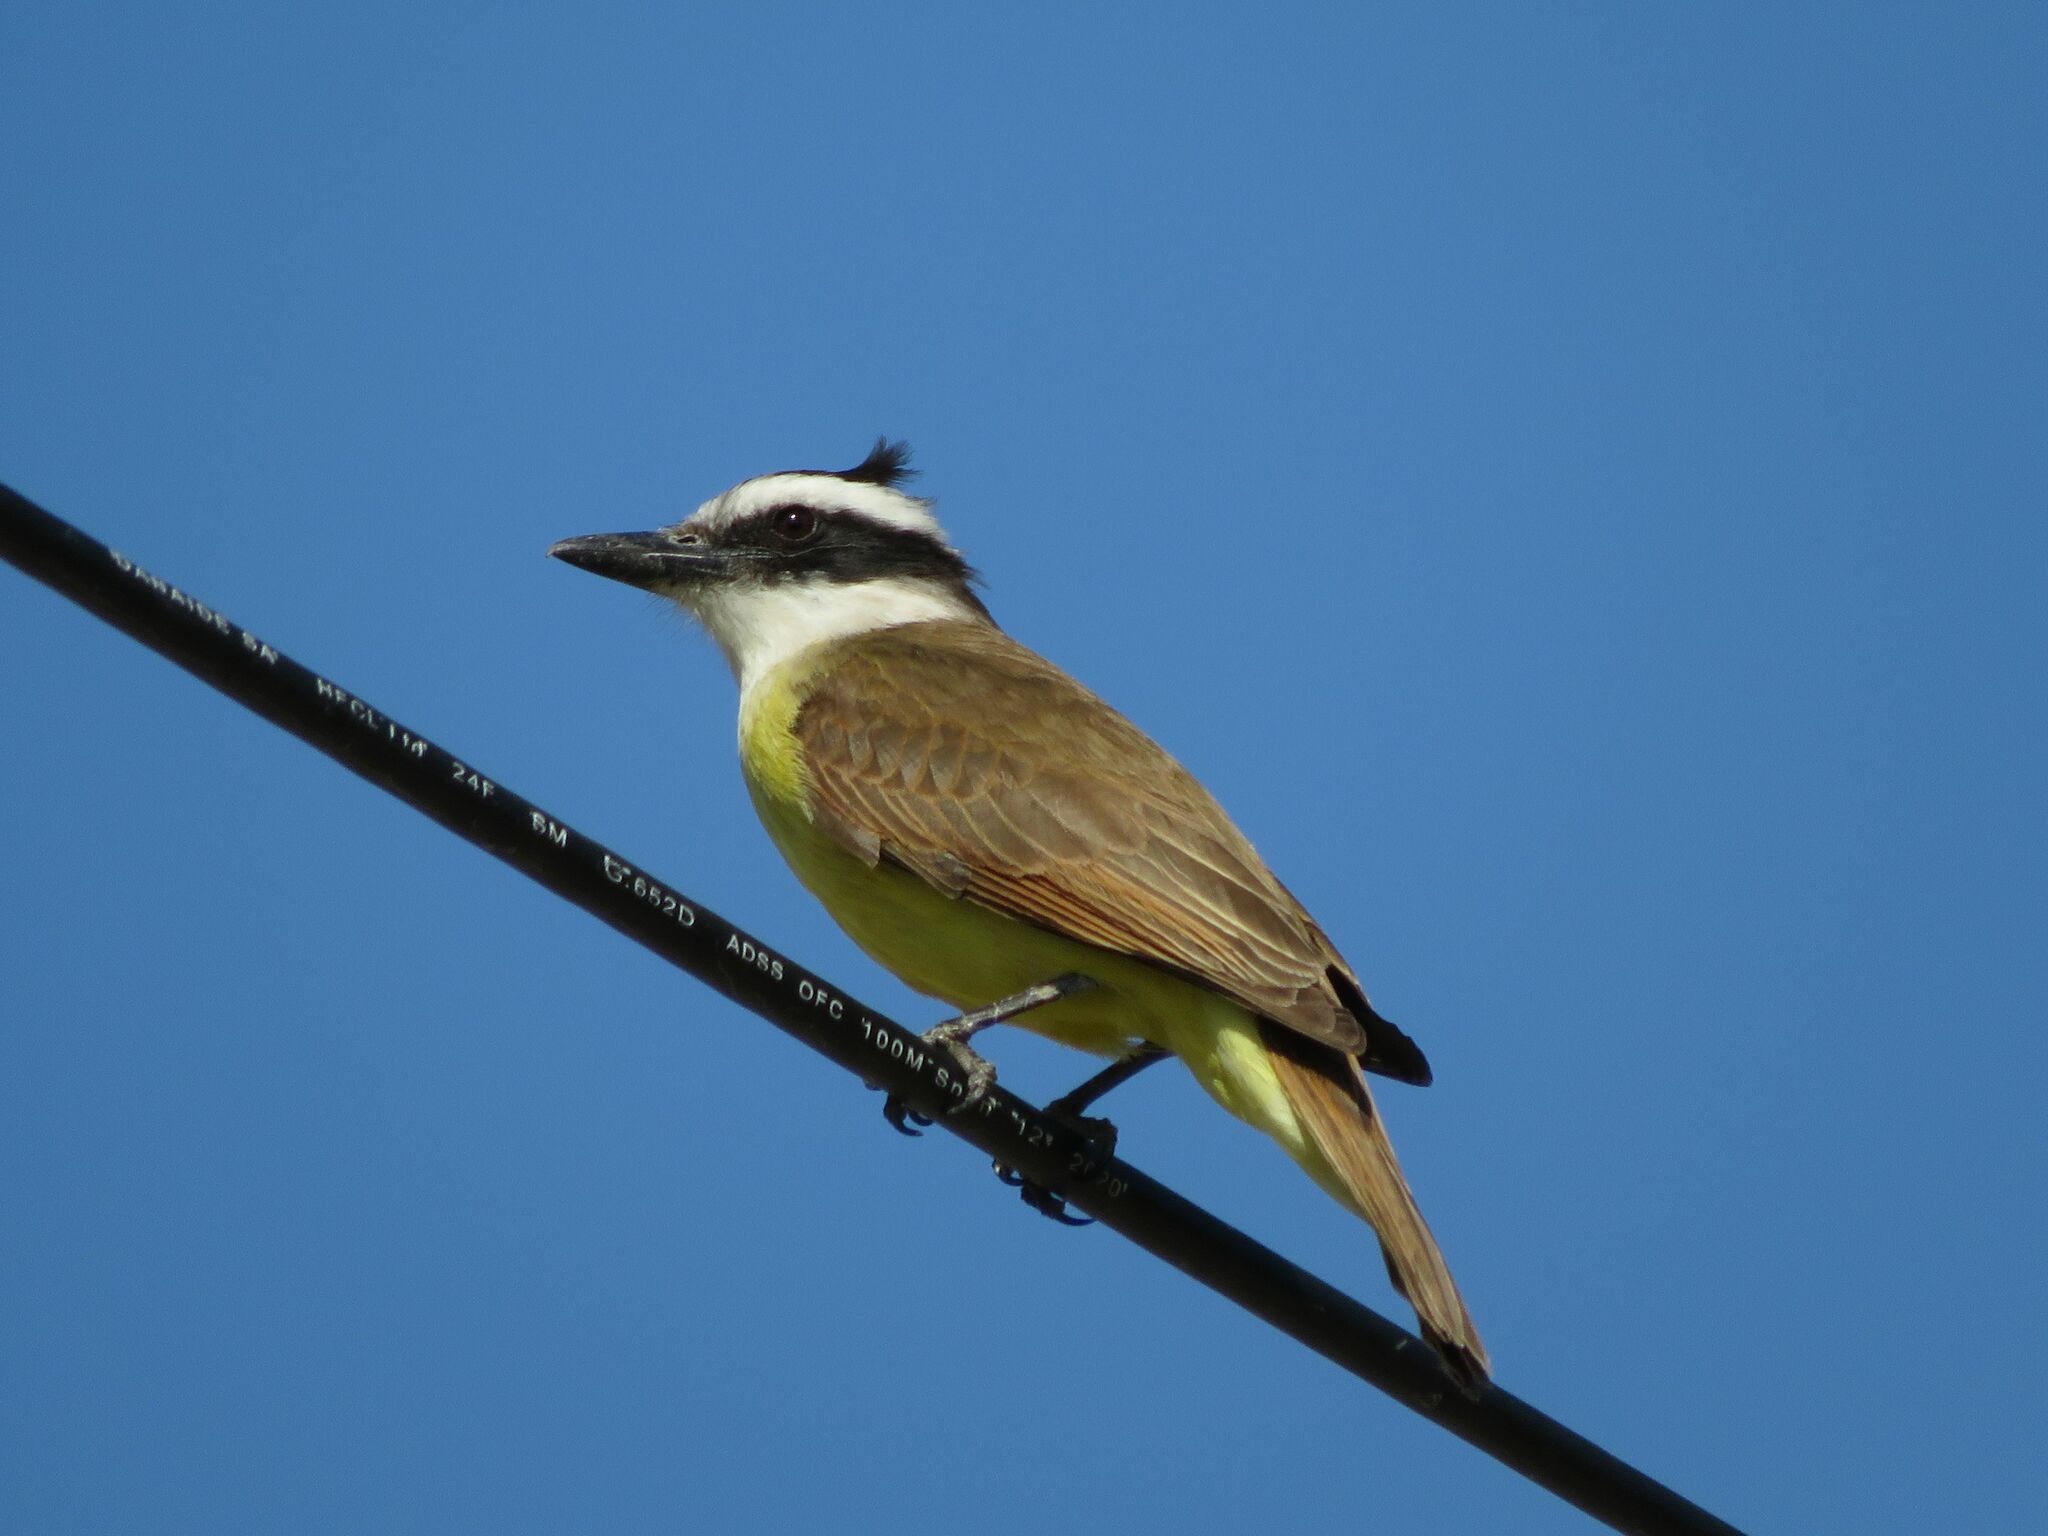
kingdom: Animalia
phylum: Chordata
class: Aves
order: Passeriformes
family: Tyrannidae
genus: Pitangus
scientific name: Pitangus sulphuratus
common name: Great kiskadee
